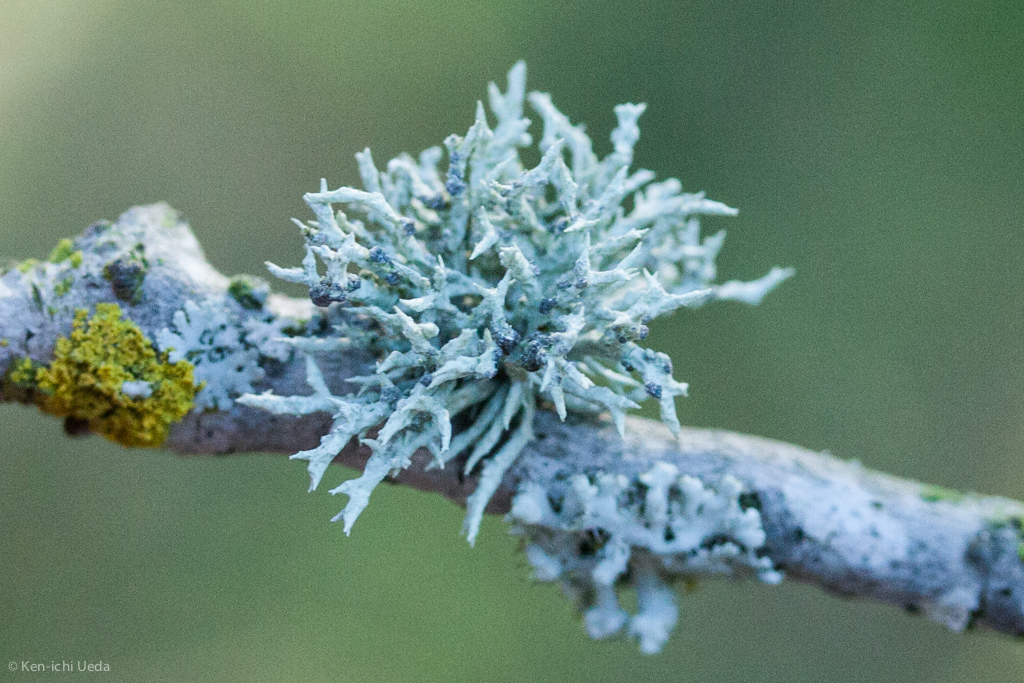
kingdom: Fungi
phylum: Ascomycota
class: Lecanoromycetes
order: Lecanorales
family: Ramalinaceae
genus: Niebla
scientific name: Niebla cephalota
